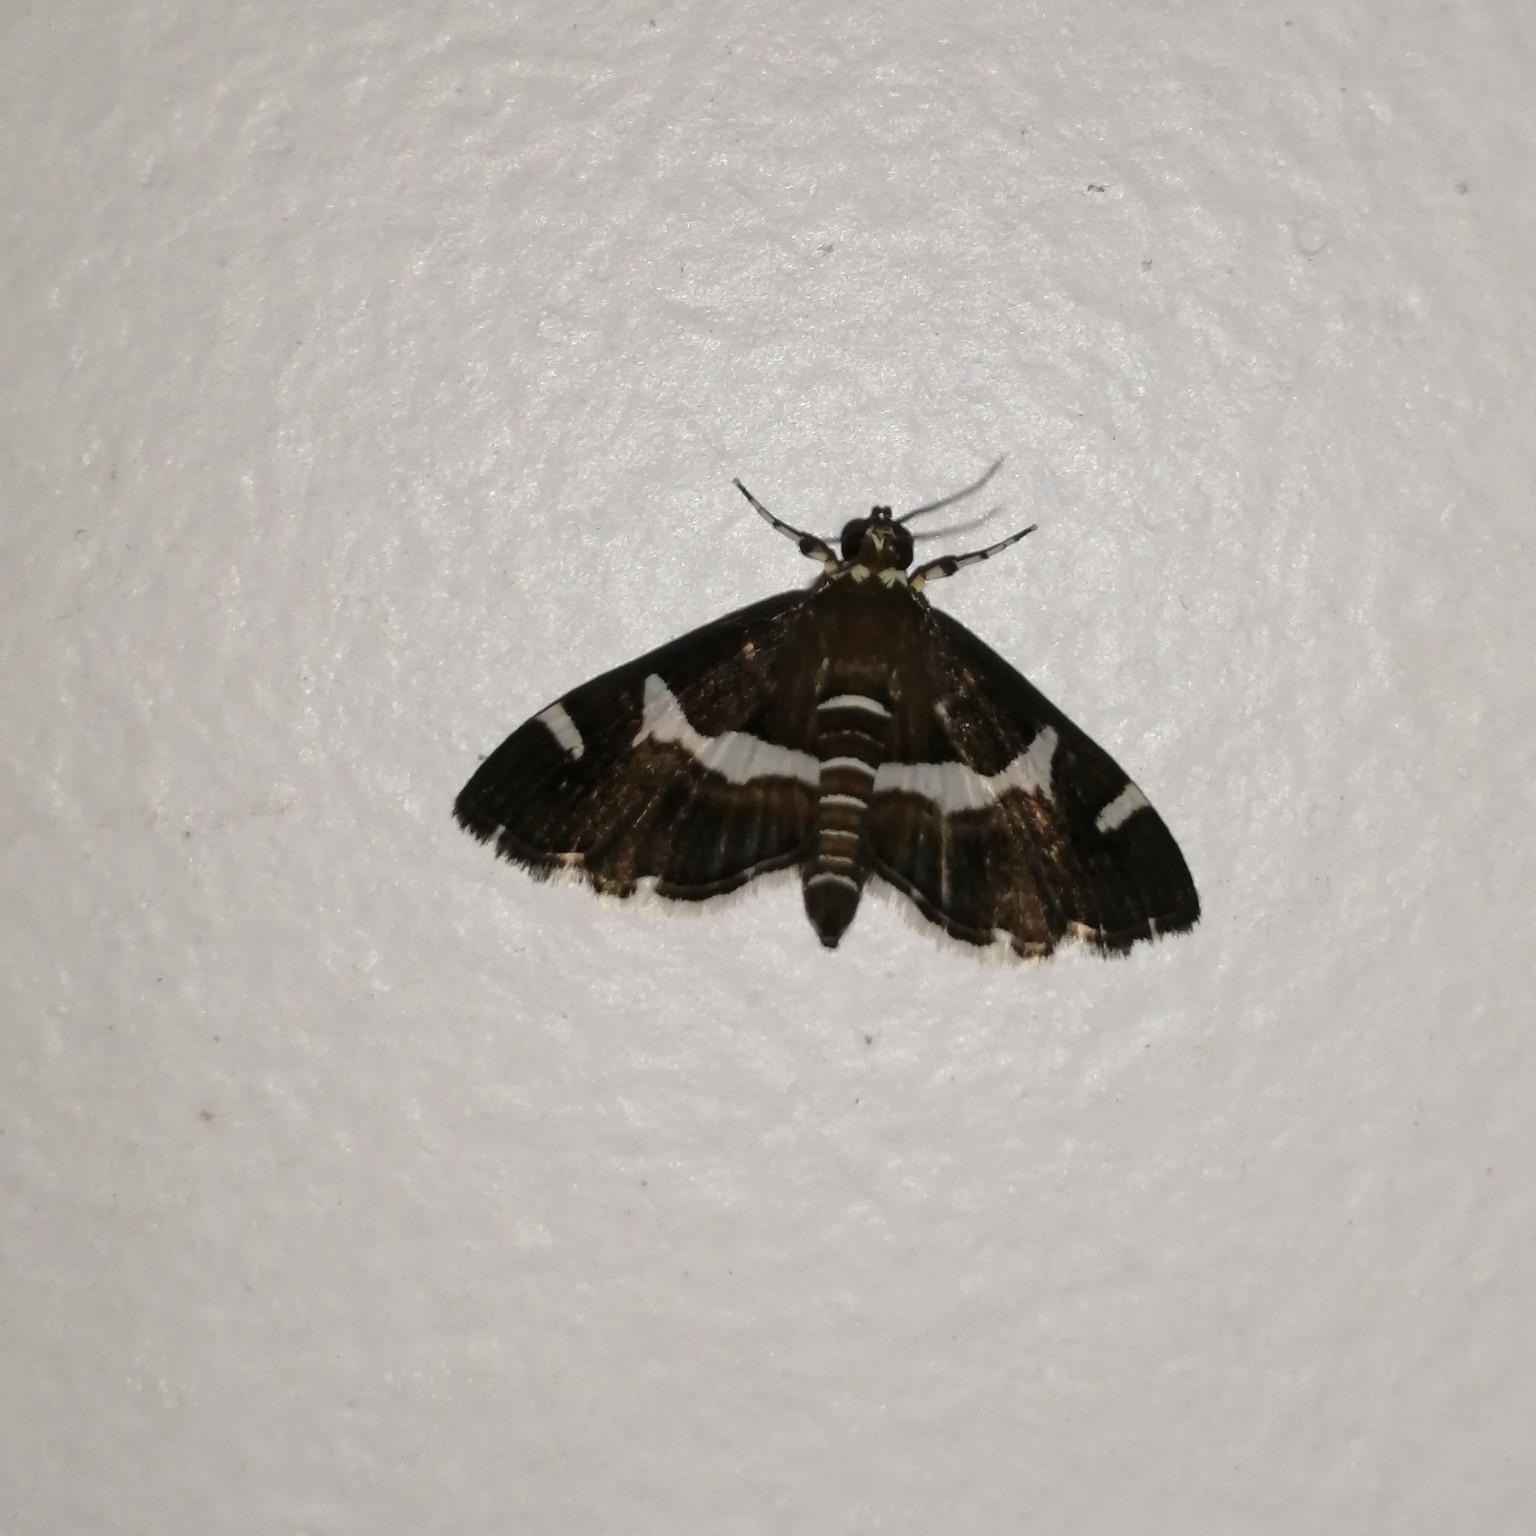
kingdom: Animalia
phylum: Arthropoda
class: Insecta
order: Lepidoptera
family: Crambidae
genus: Spoladea
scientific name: Spoladea recurvalis
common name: Beet webworm moth
